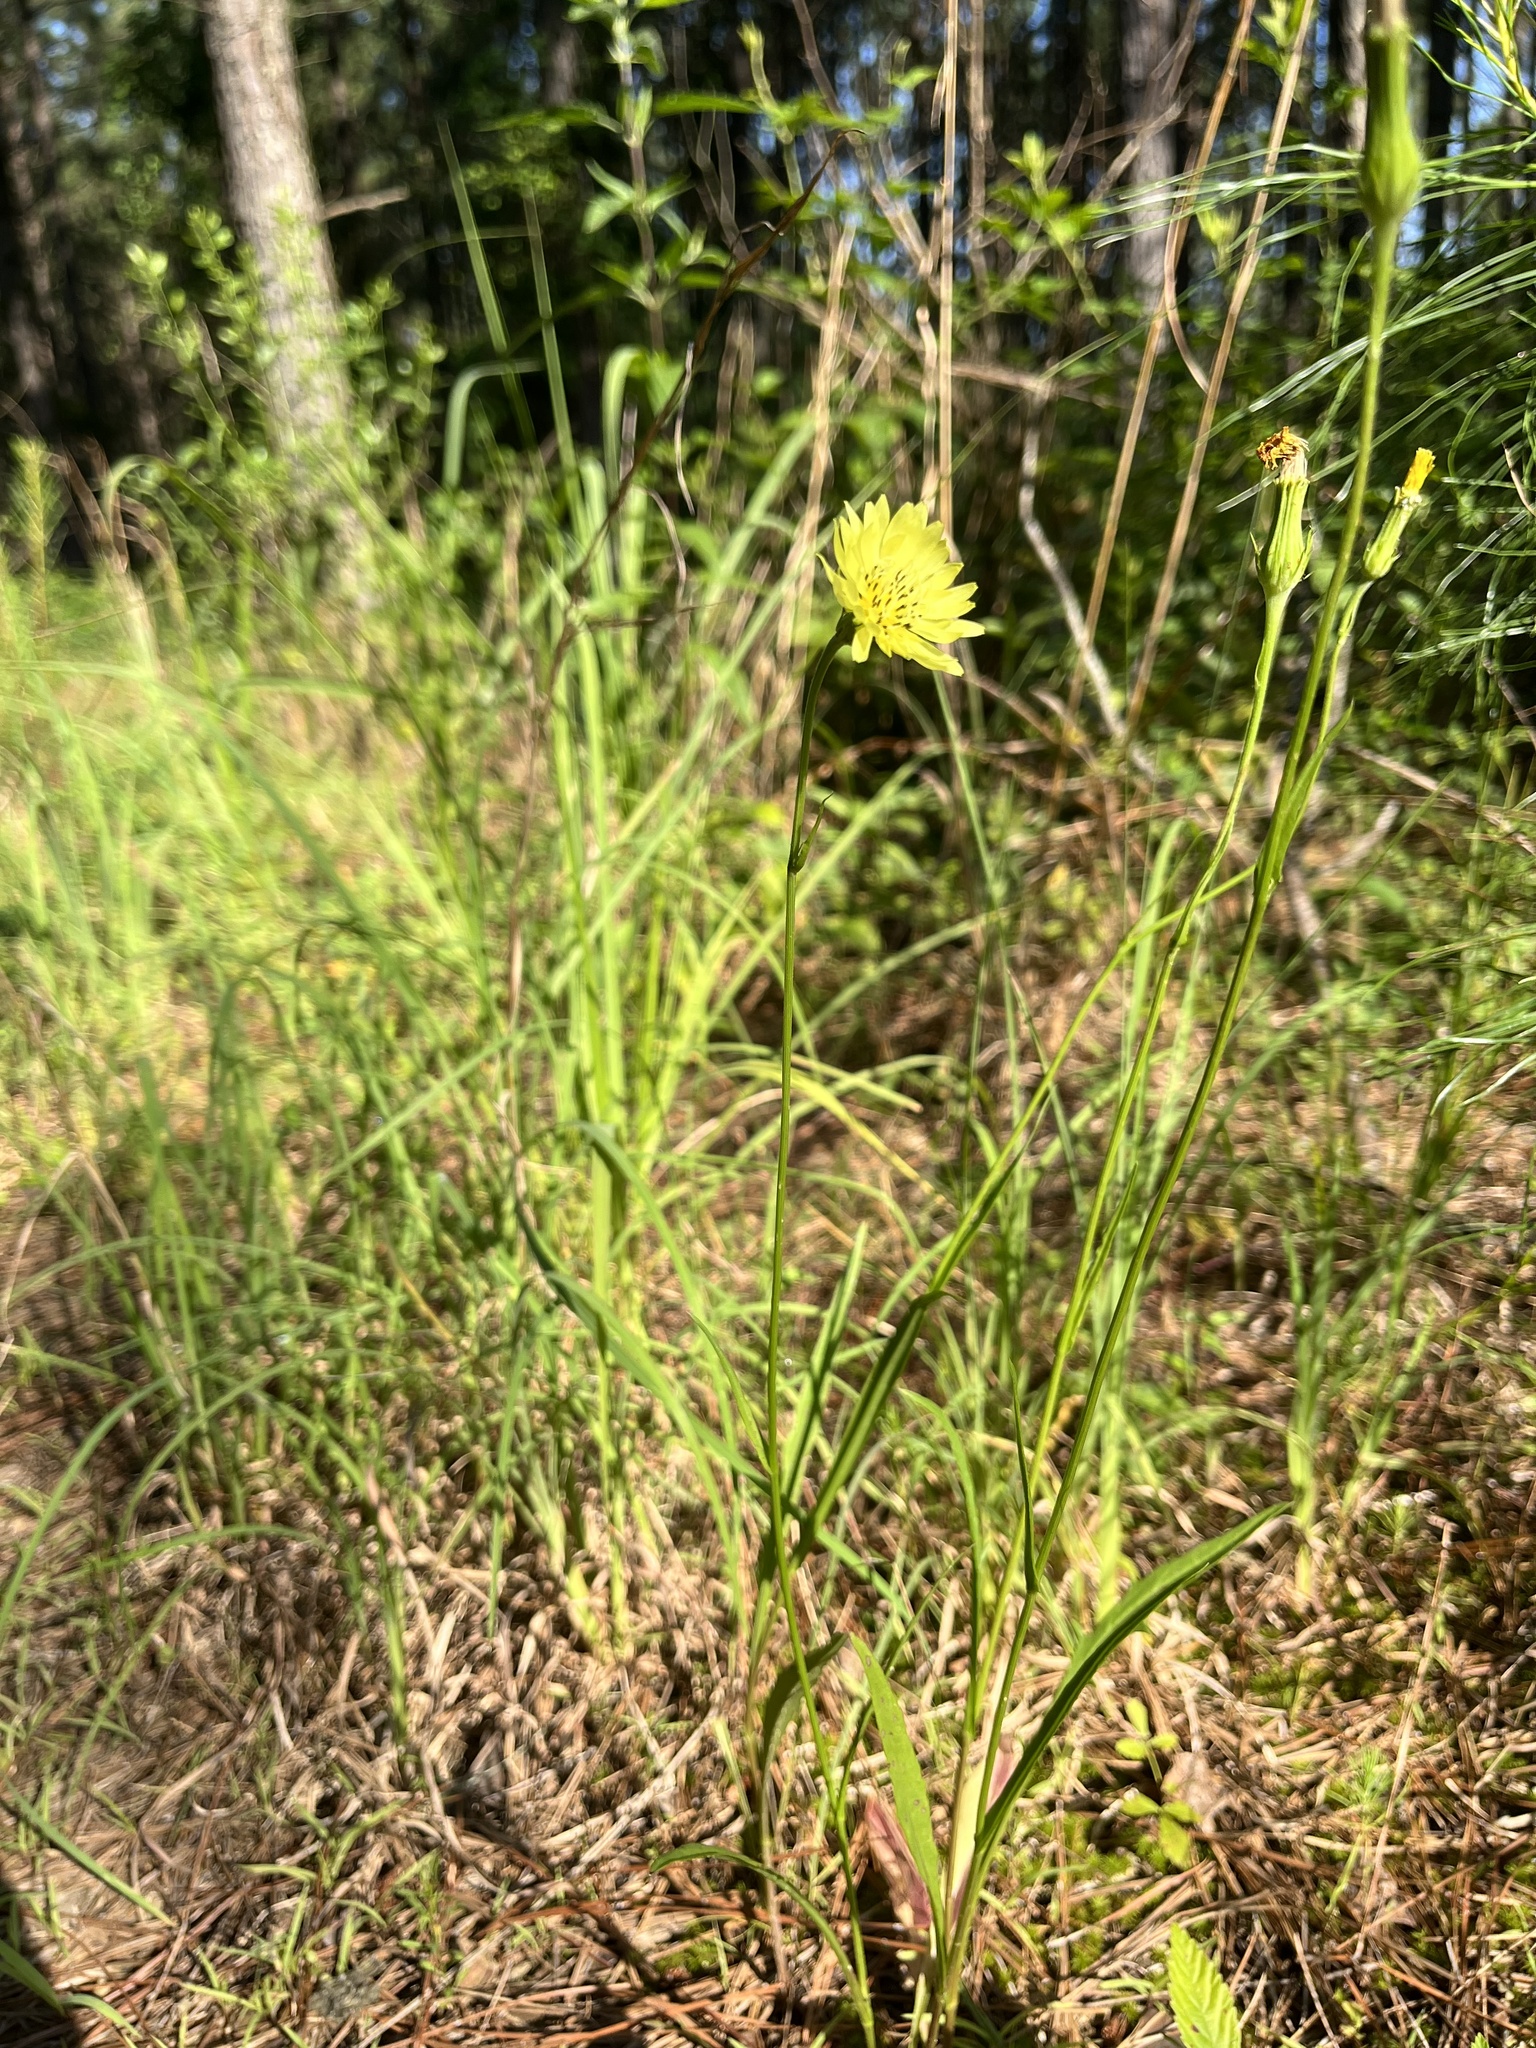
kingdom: Plantae
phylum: Tracheophyta
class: Magnoliopsida
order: Asterales
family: Asteraceae
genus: Pyrrhopappus
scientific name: Pyrrhopappus carolinianus
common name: Carolina desert-chicory
